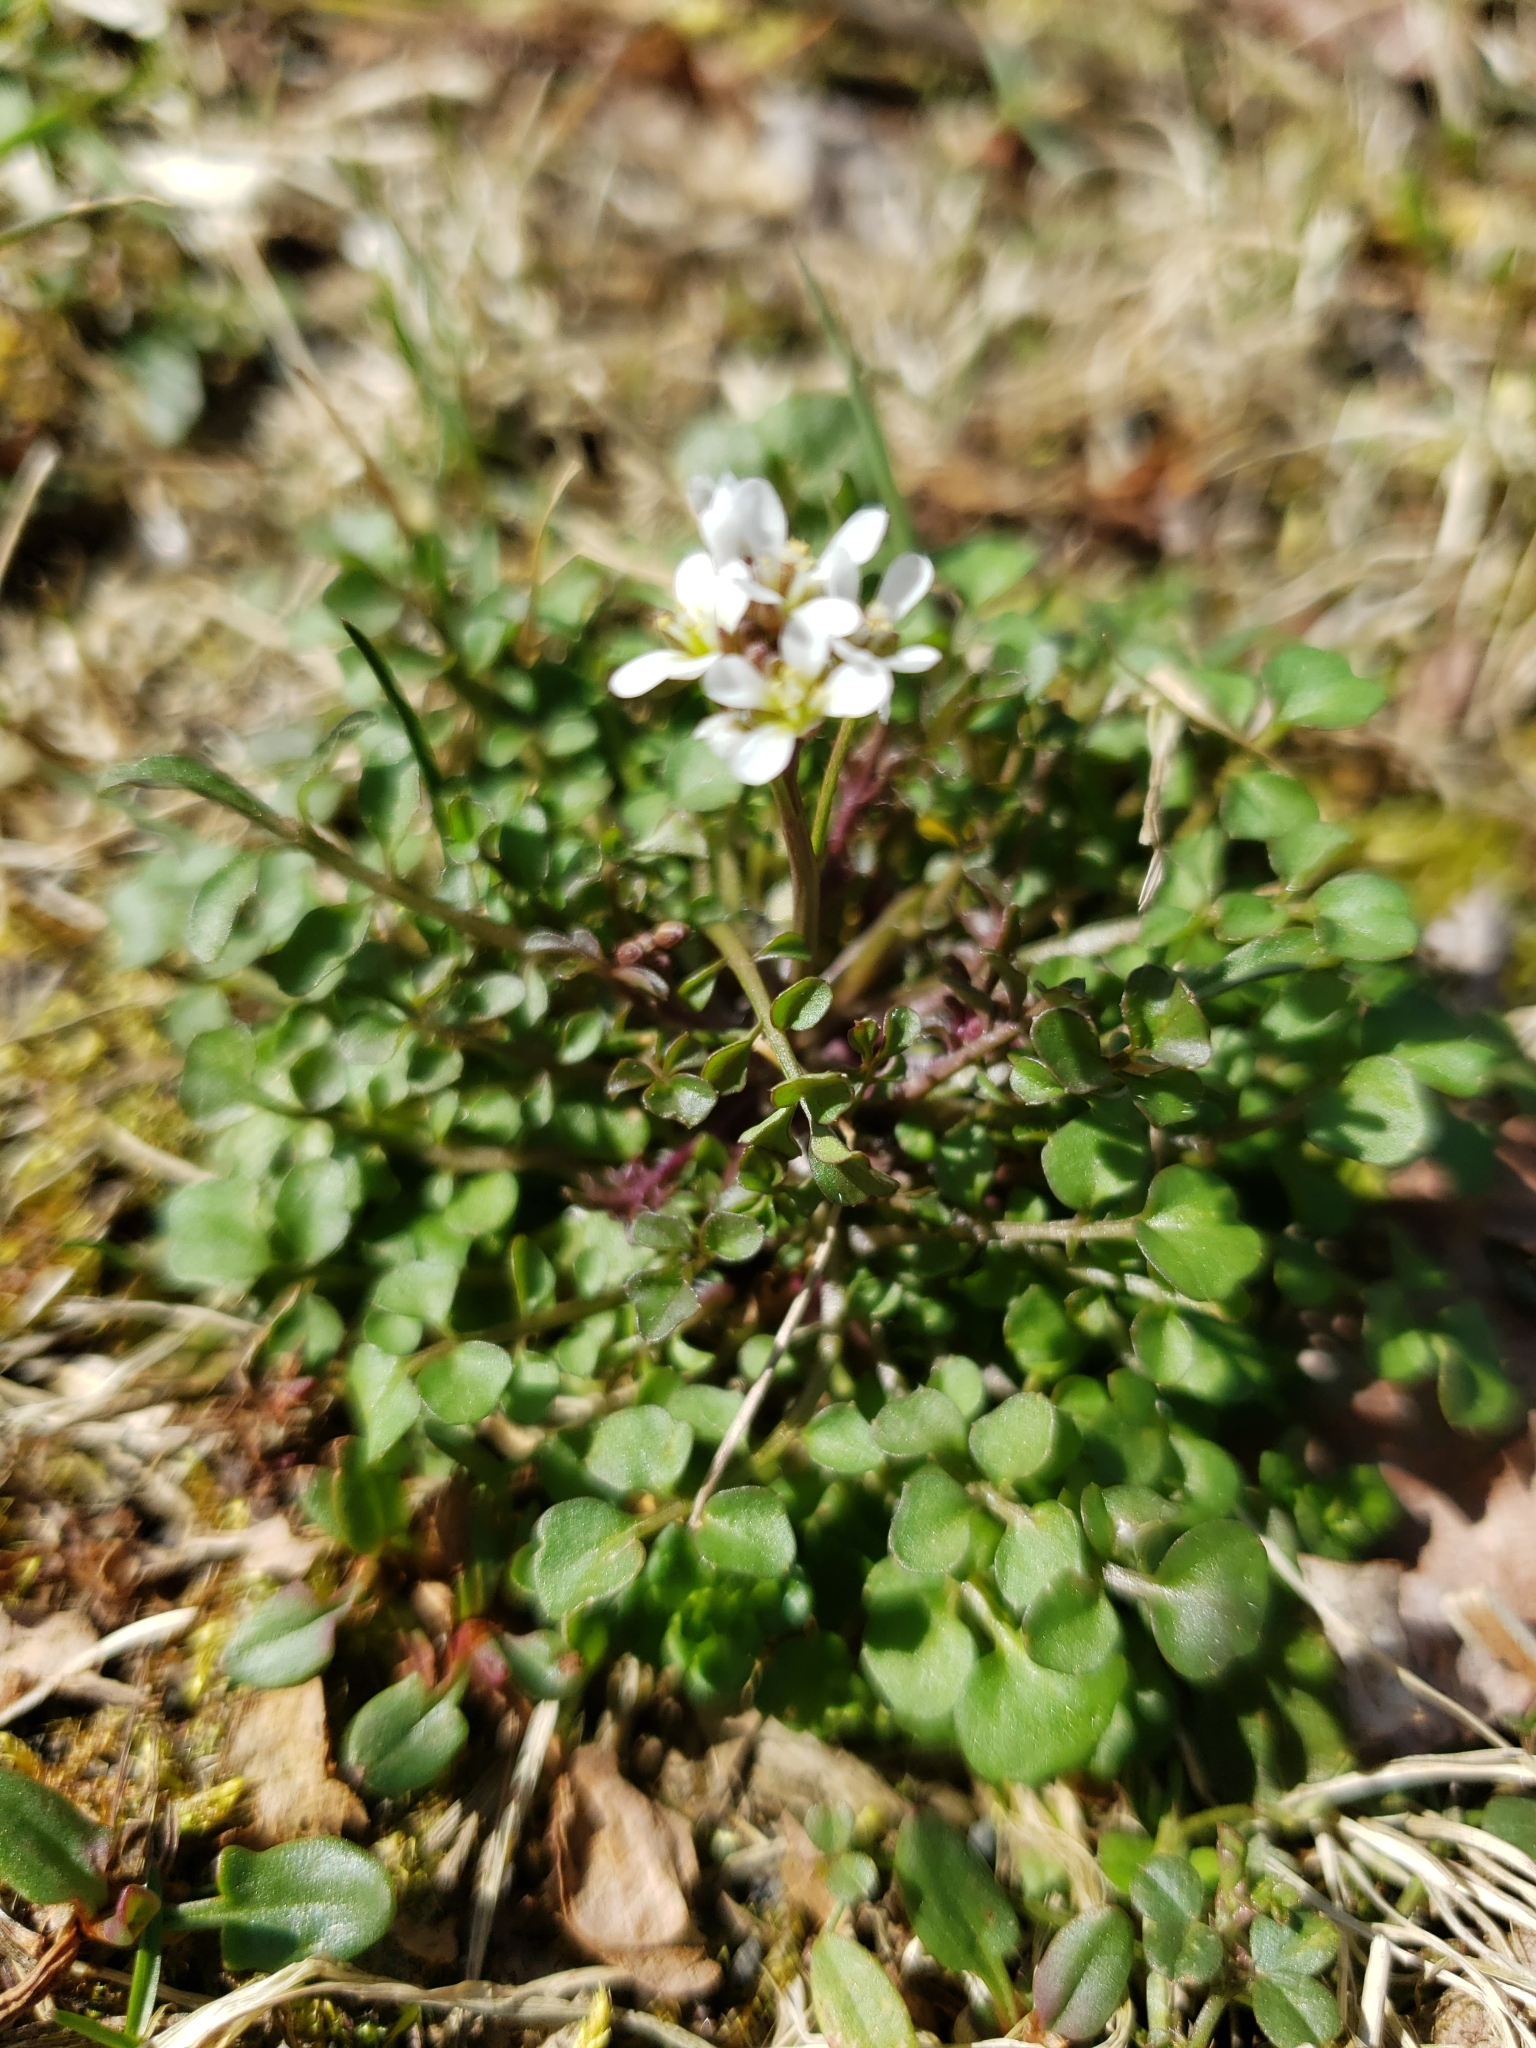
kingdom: Plantae
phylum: Tracheophyta
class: Magnoliopsida
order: Brassicales
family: Brassicaceae
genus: Cardamine
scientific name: Cardamine hirsuta
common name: Hairy bittercress
